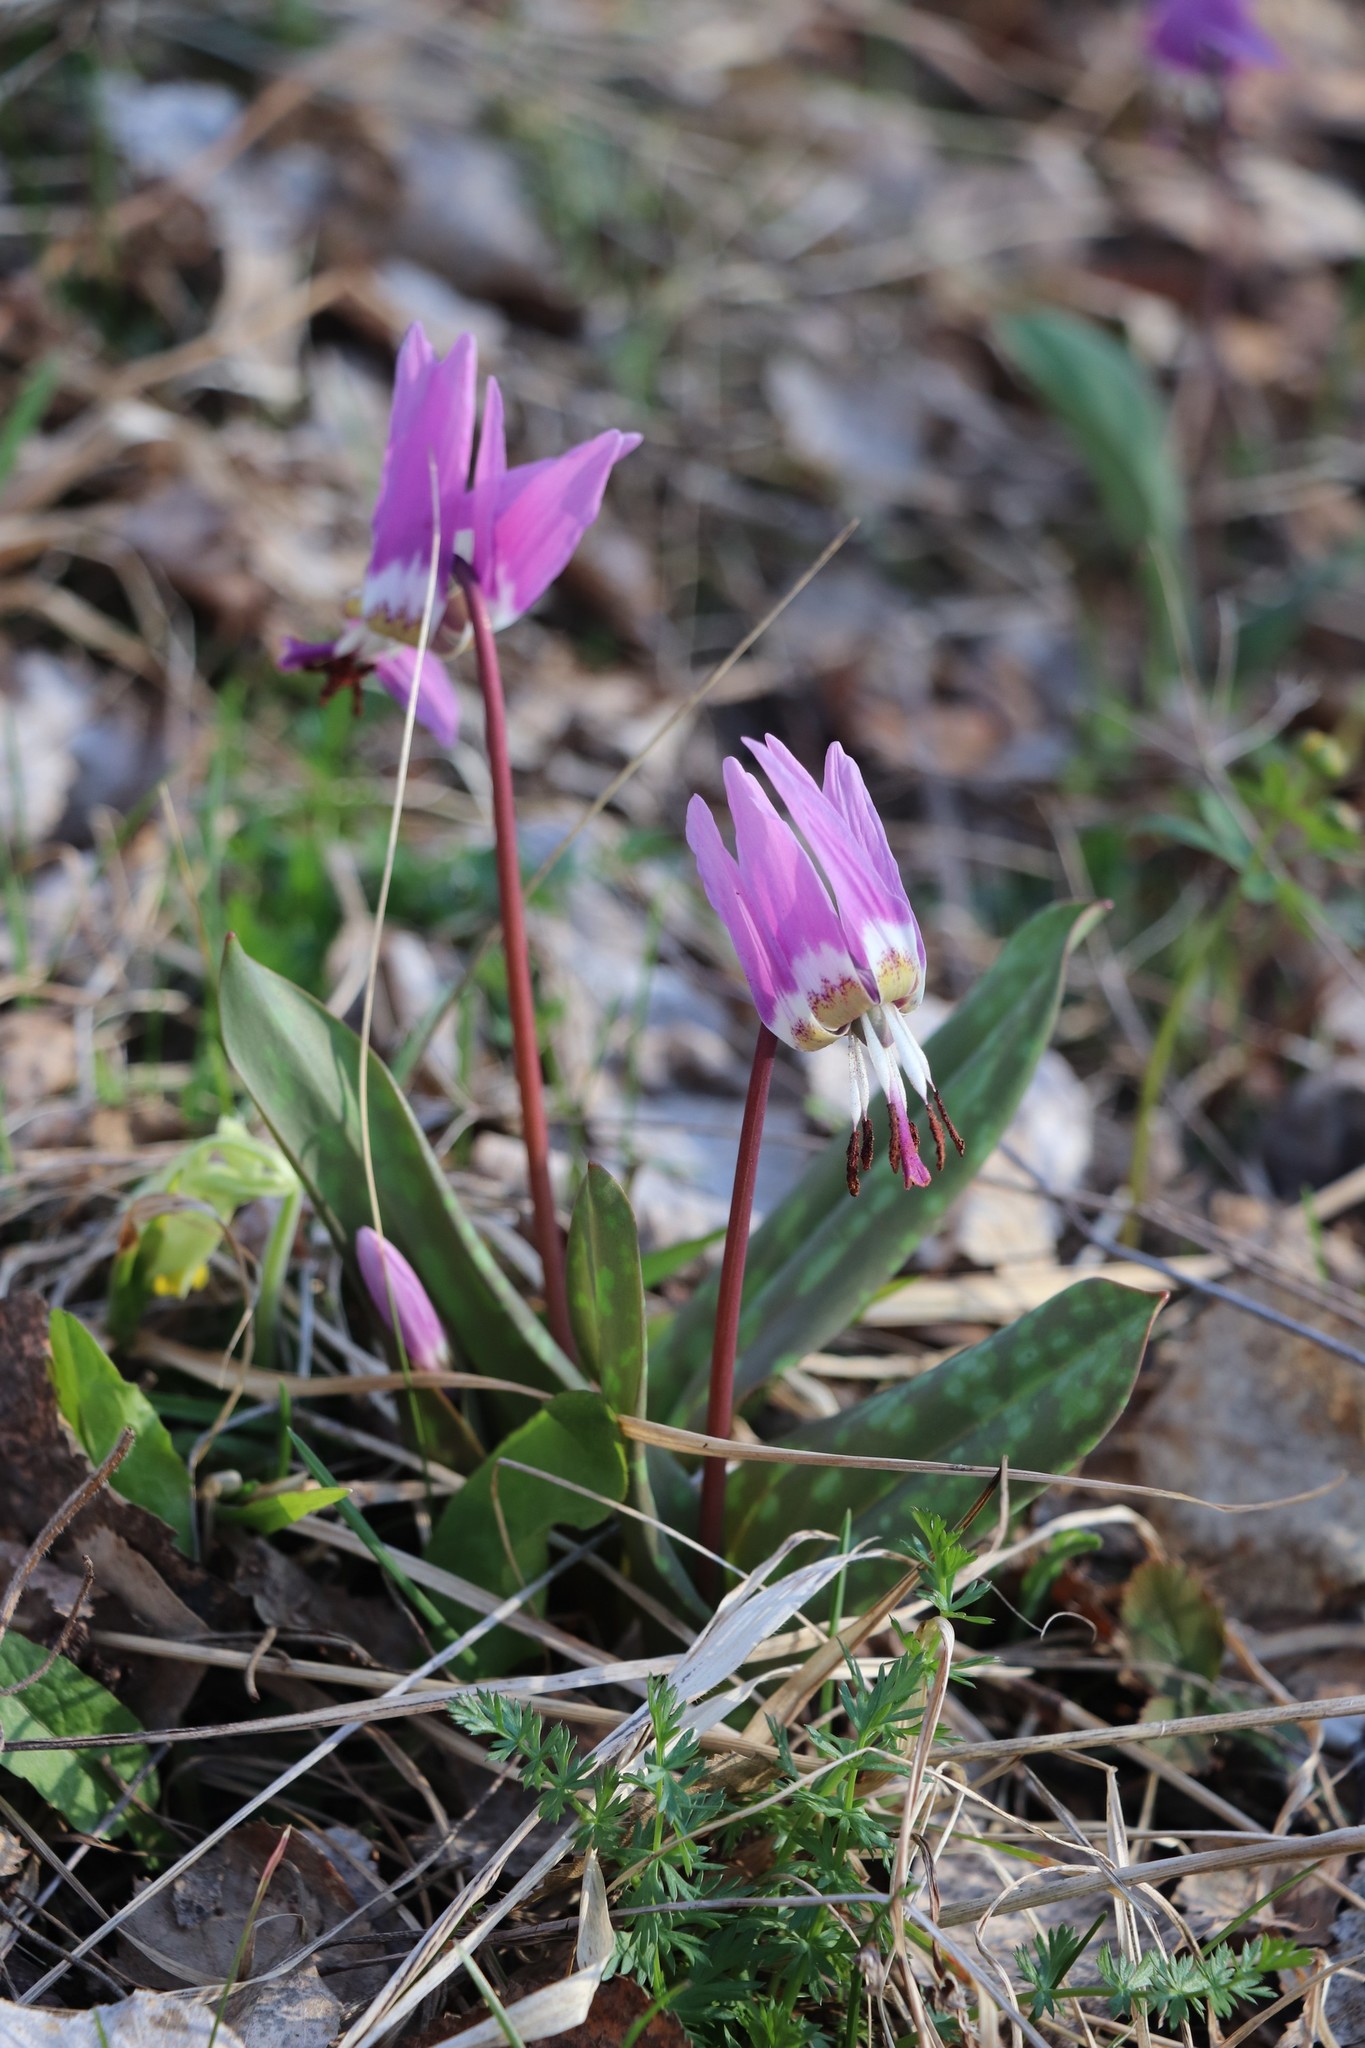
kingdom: Plantae
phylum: Tracheophyta
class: Liliopsida
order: Liliales
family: Liliaceae
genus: Erythronium
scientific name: Erythronium sulevii
